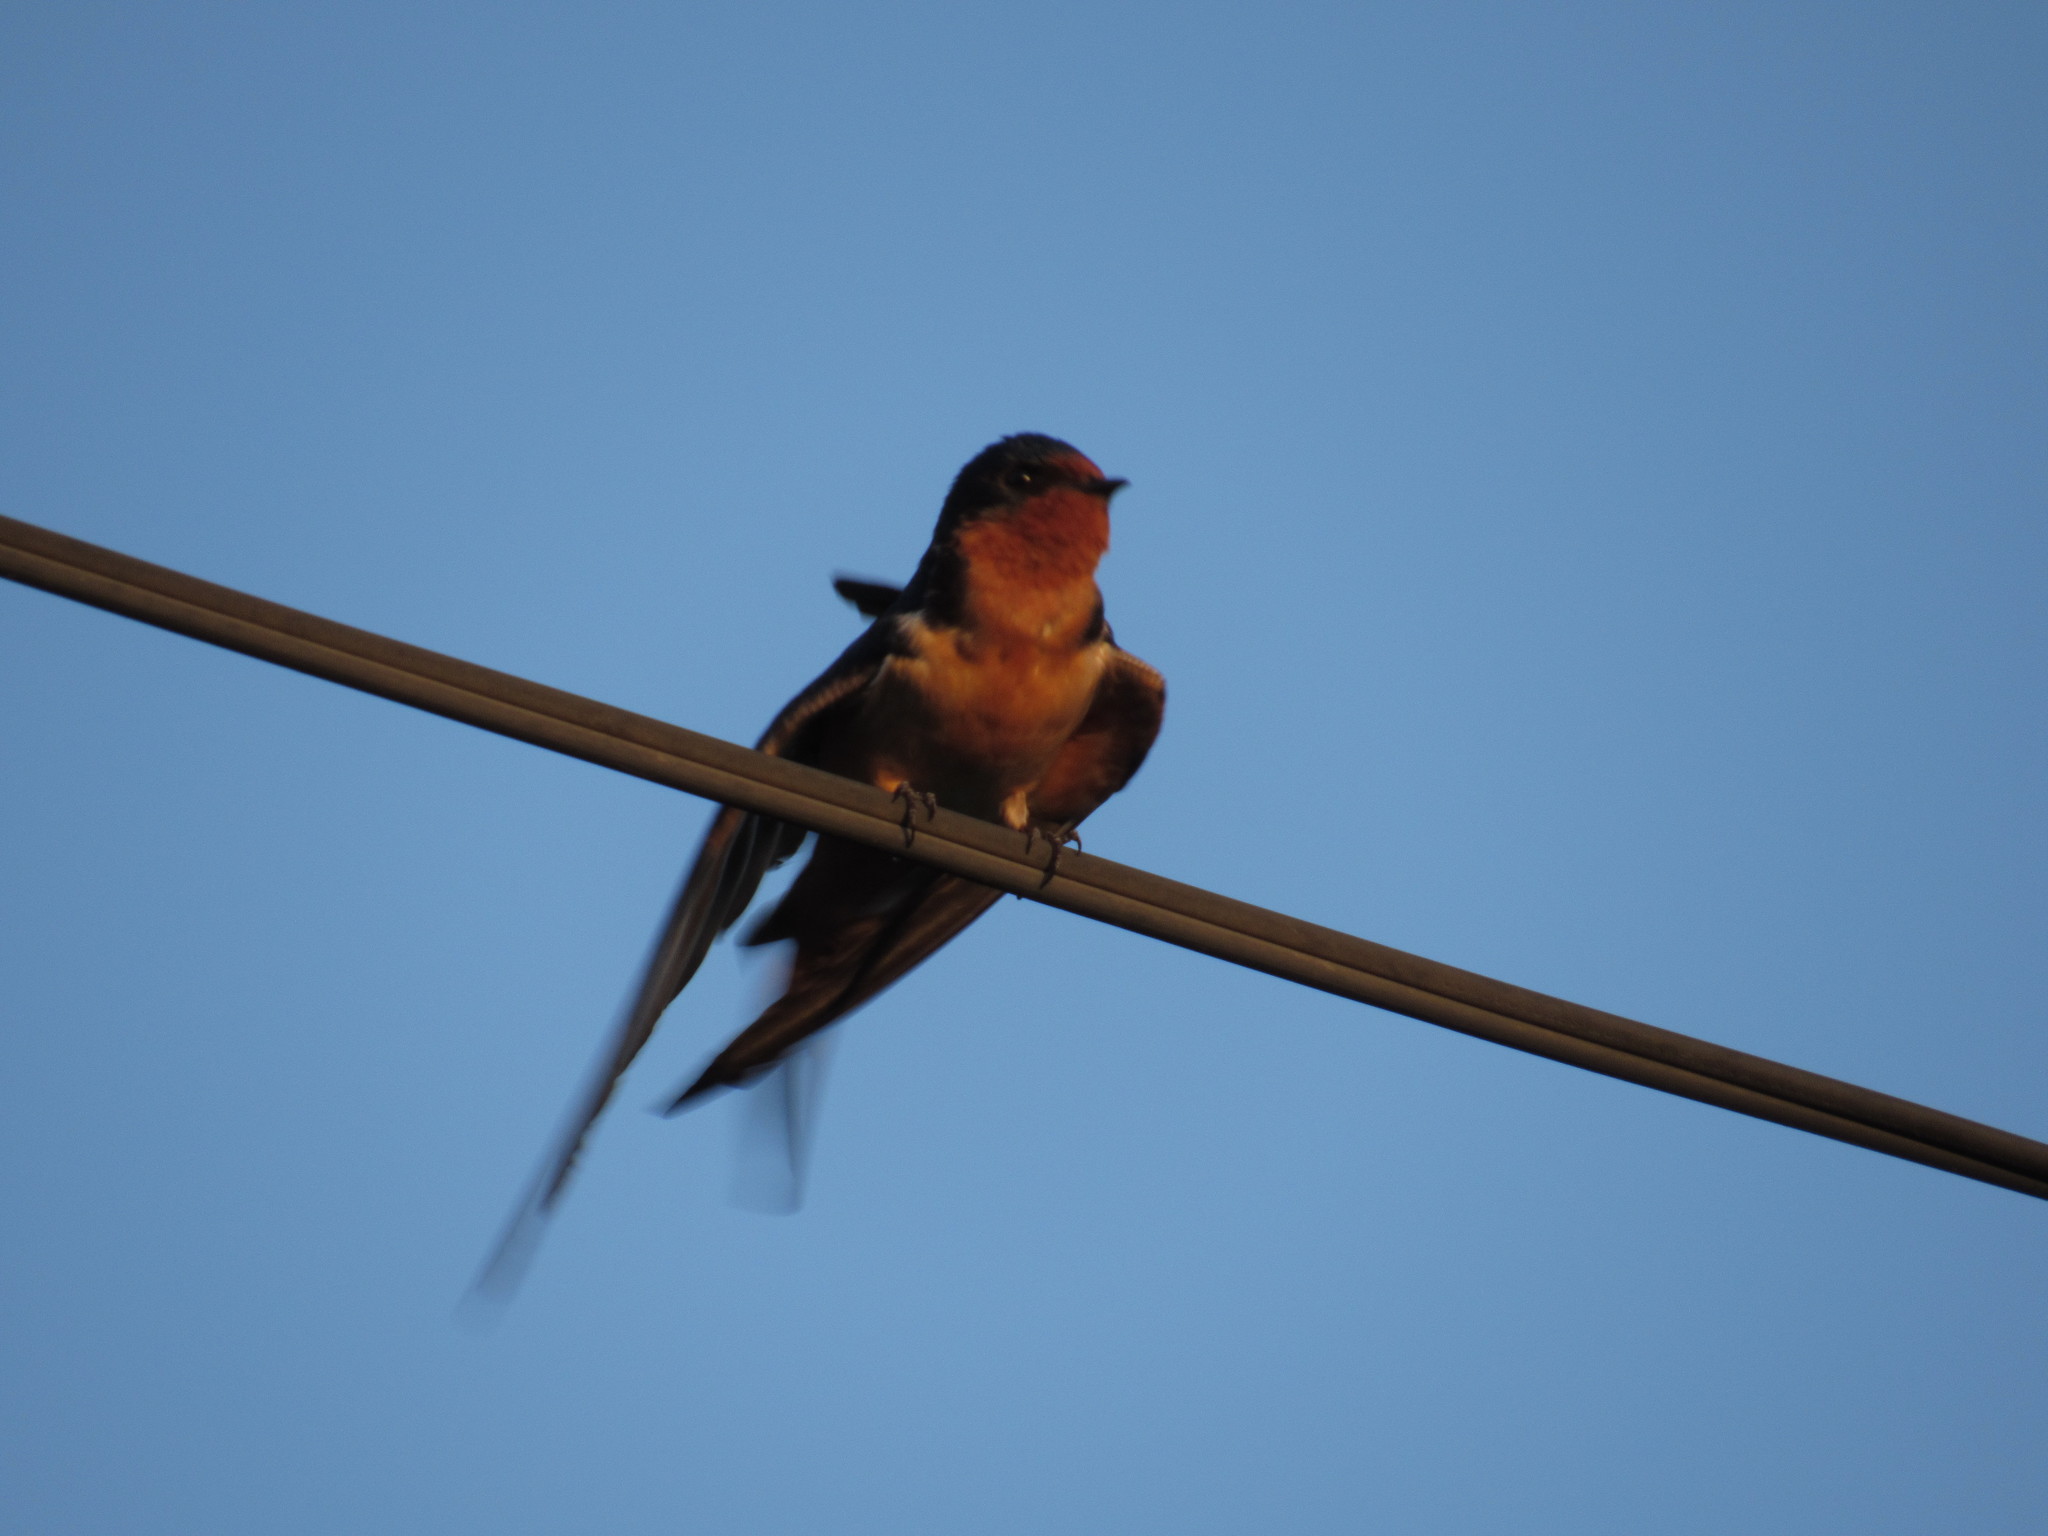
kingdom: Animalia
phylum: Chordata
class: Aves
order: Passeriformes
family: Hirundinidae
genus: Hirundo
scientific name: Hirundo rustica
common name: Barn swallow
